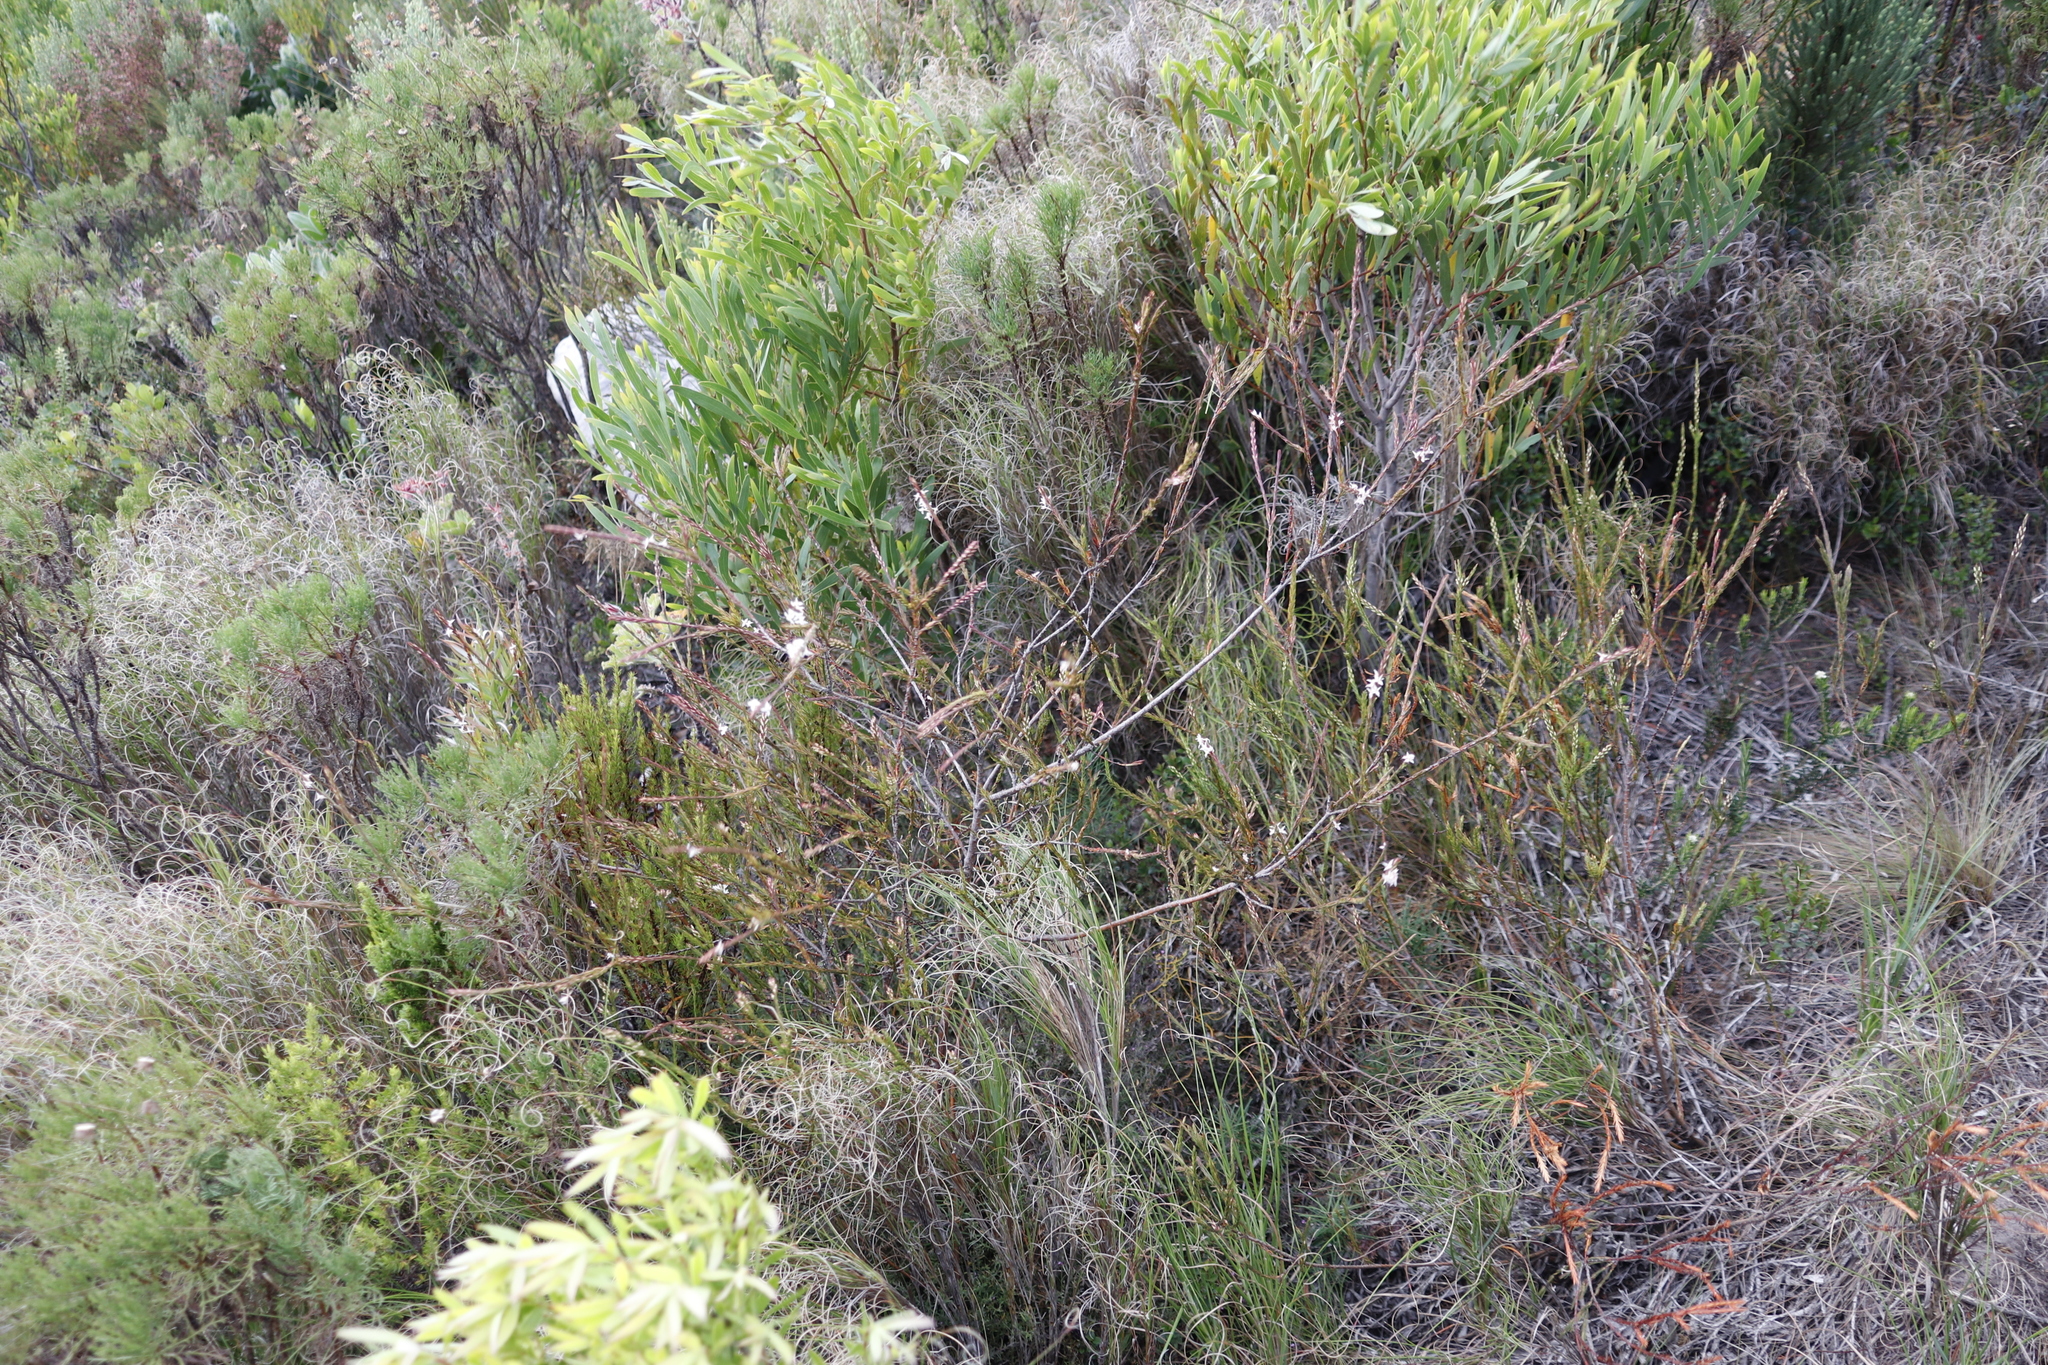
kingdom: Plantae
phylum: Tracheophyta
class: Magnoliopsida
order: Malvales
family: Thymelaeaceae
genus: Struthiola
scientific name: Struthiola dodecandra
